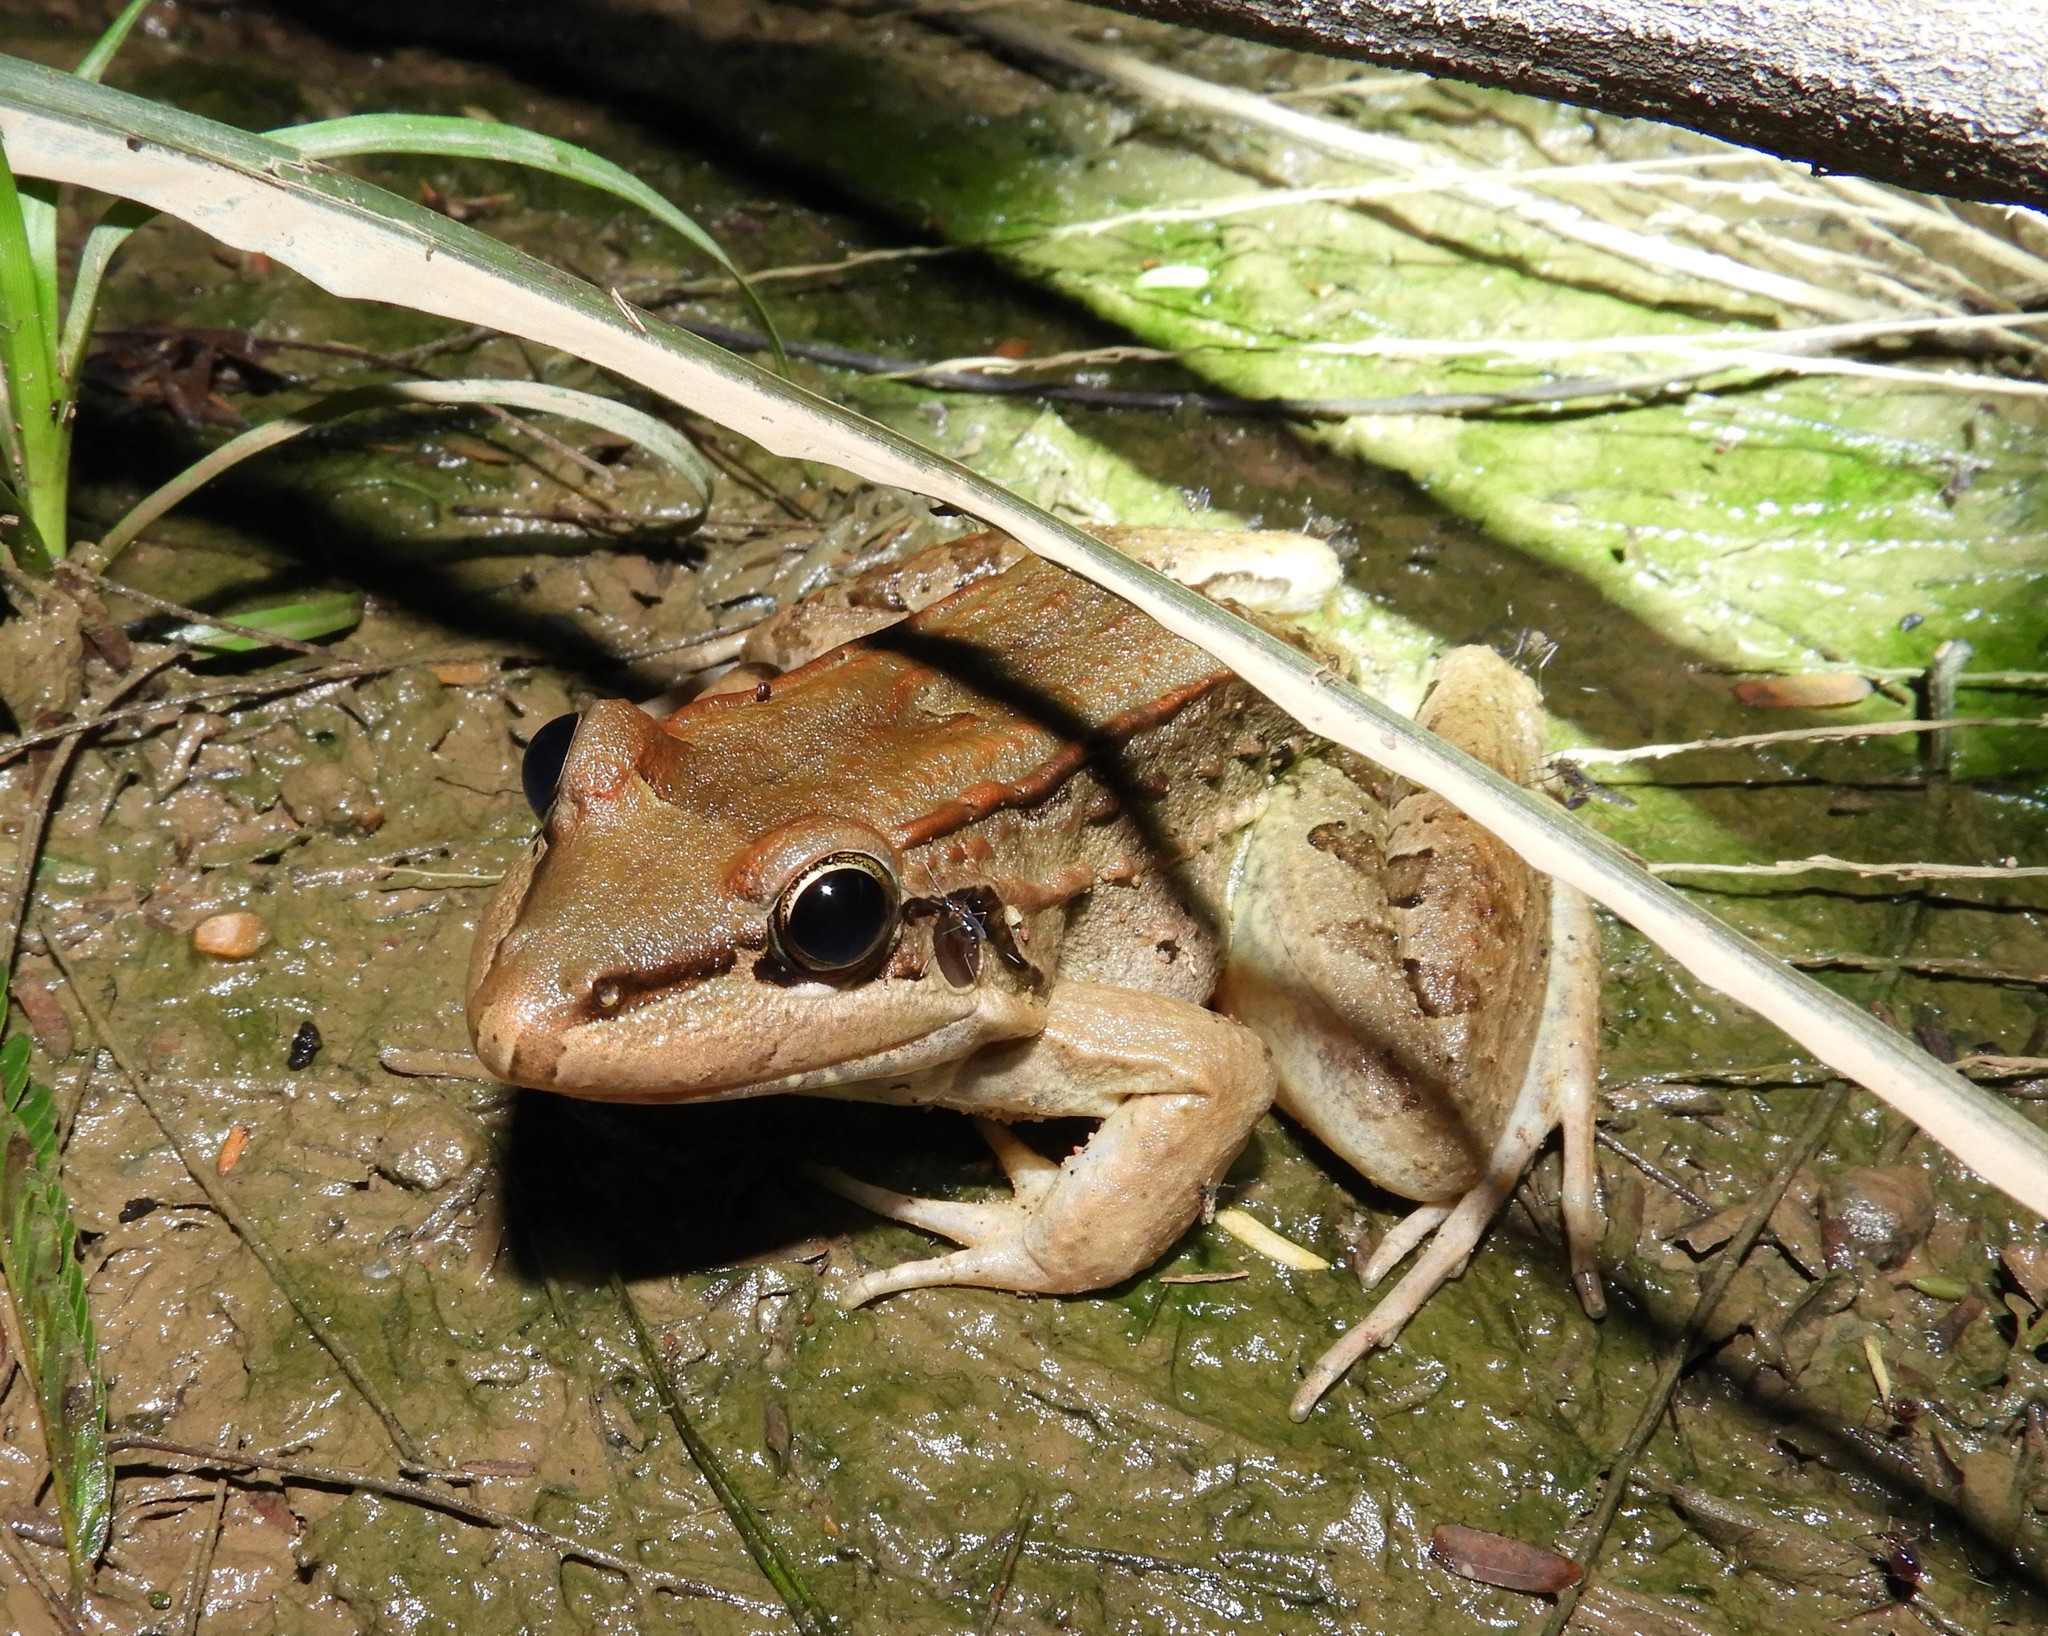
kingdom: Animalia
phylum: Chordata
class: Amphibia
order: Anura
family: Leptodactylidae
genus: Leptodactylus
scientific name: Leptodactylus insularum
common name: San miguel island frog
